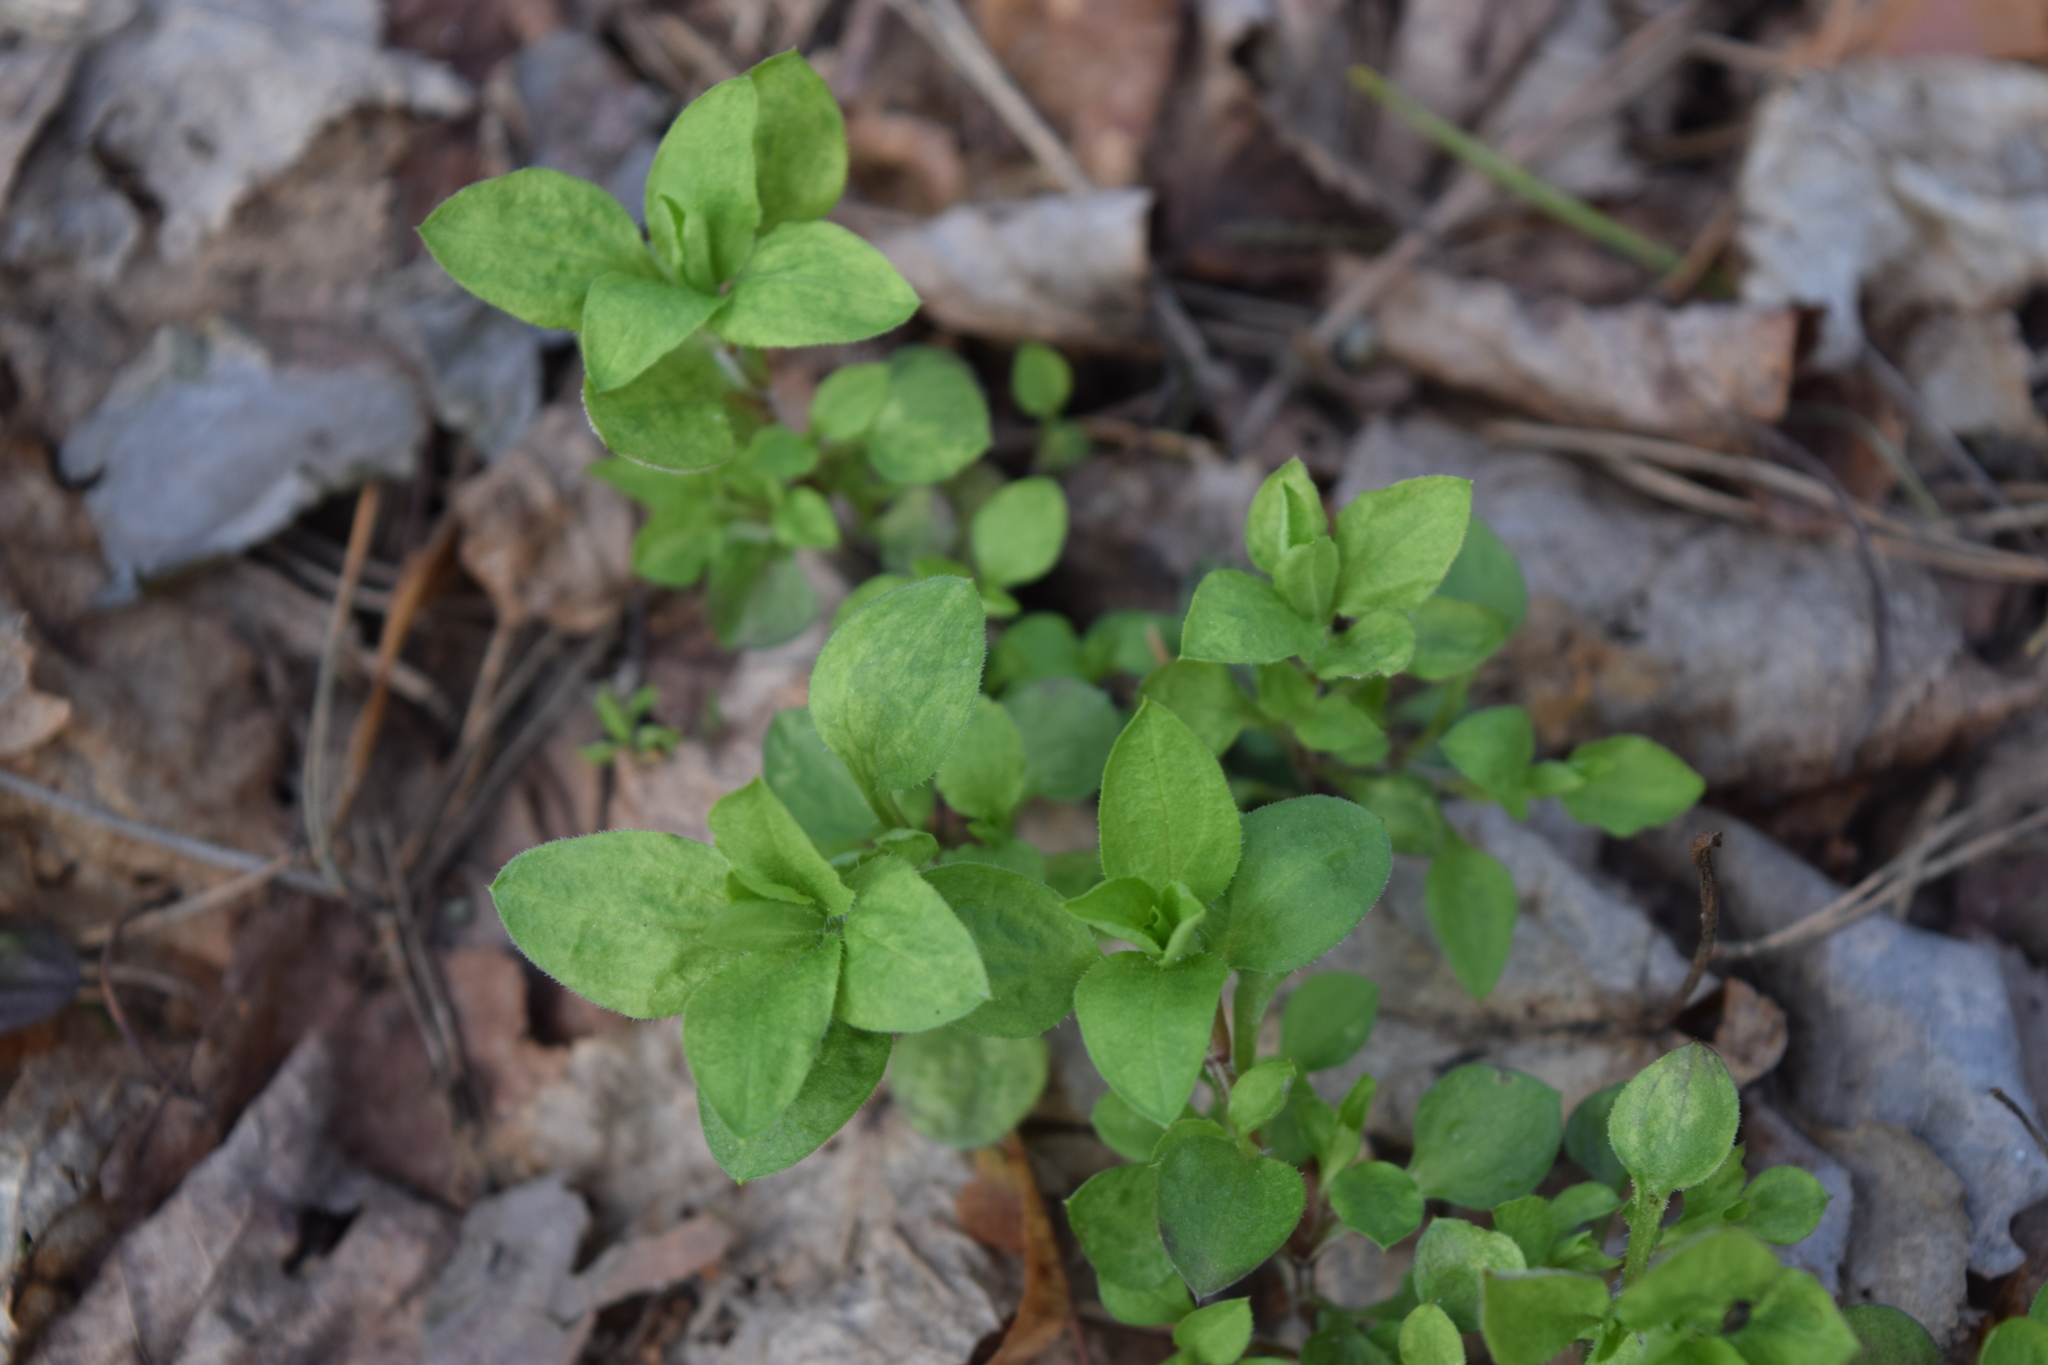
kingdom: Plantae
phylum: Tracheophyta
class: Magnoliopsida
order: Caryophyllales
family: Caryophyllaceae
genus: Moehringia
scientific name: Moehringia trinervia
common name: Three-nerved sandwort
